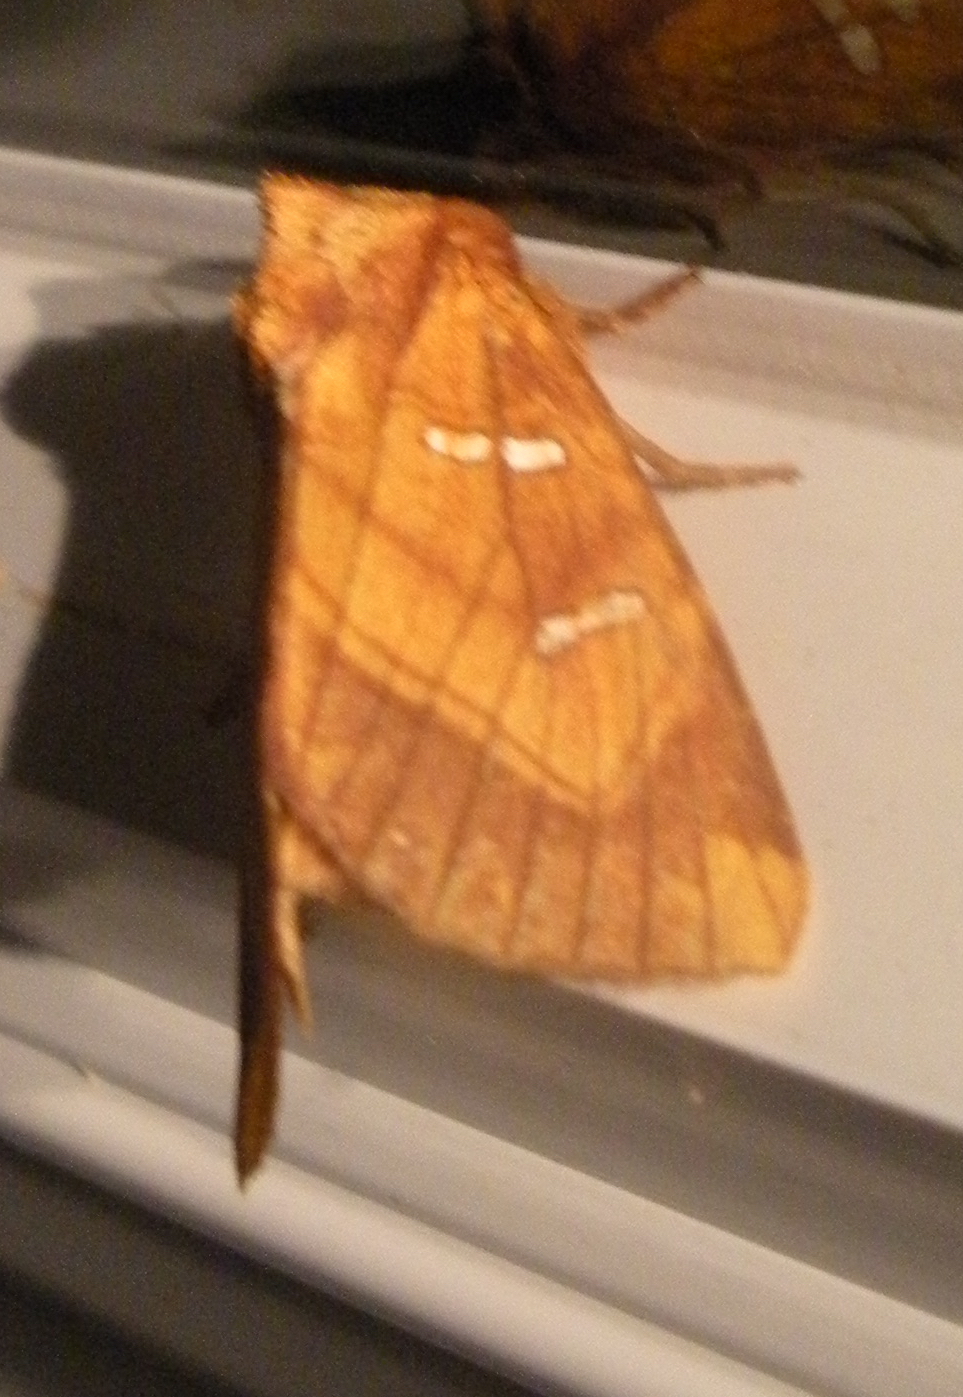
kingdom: Animalia
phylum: Arthropoda
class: Insecta
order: Lepidoptera
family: Noctuidae
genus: Papaipema
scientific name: Papaipema speciosissima
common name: Osmunda borer moth
